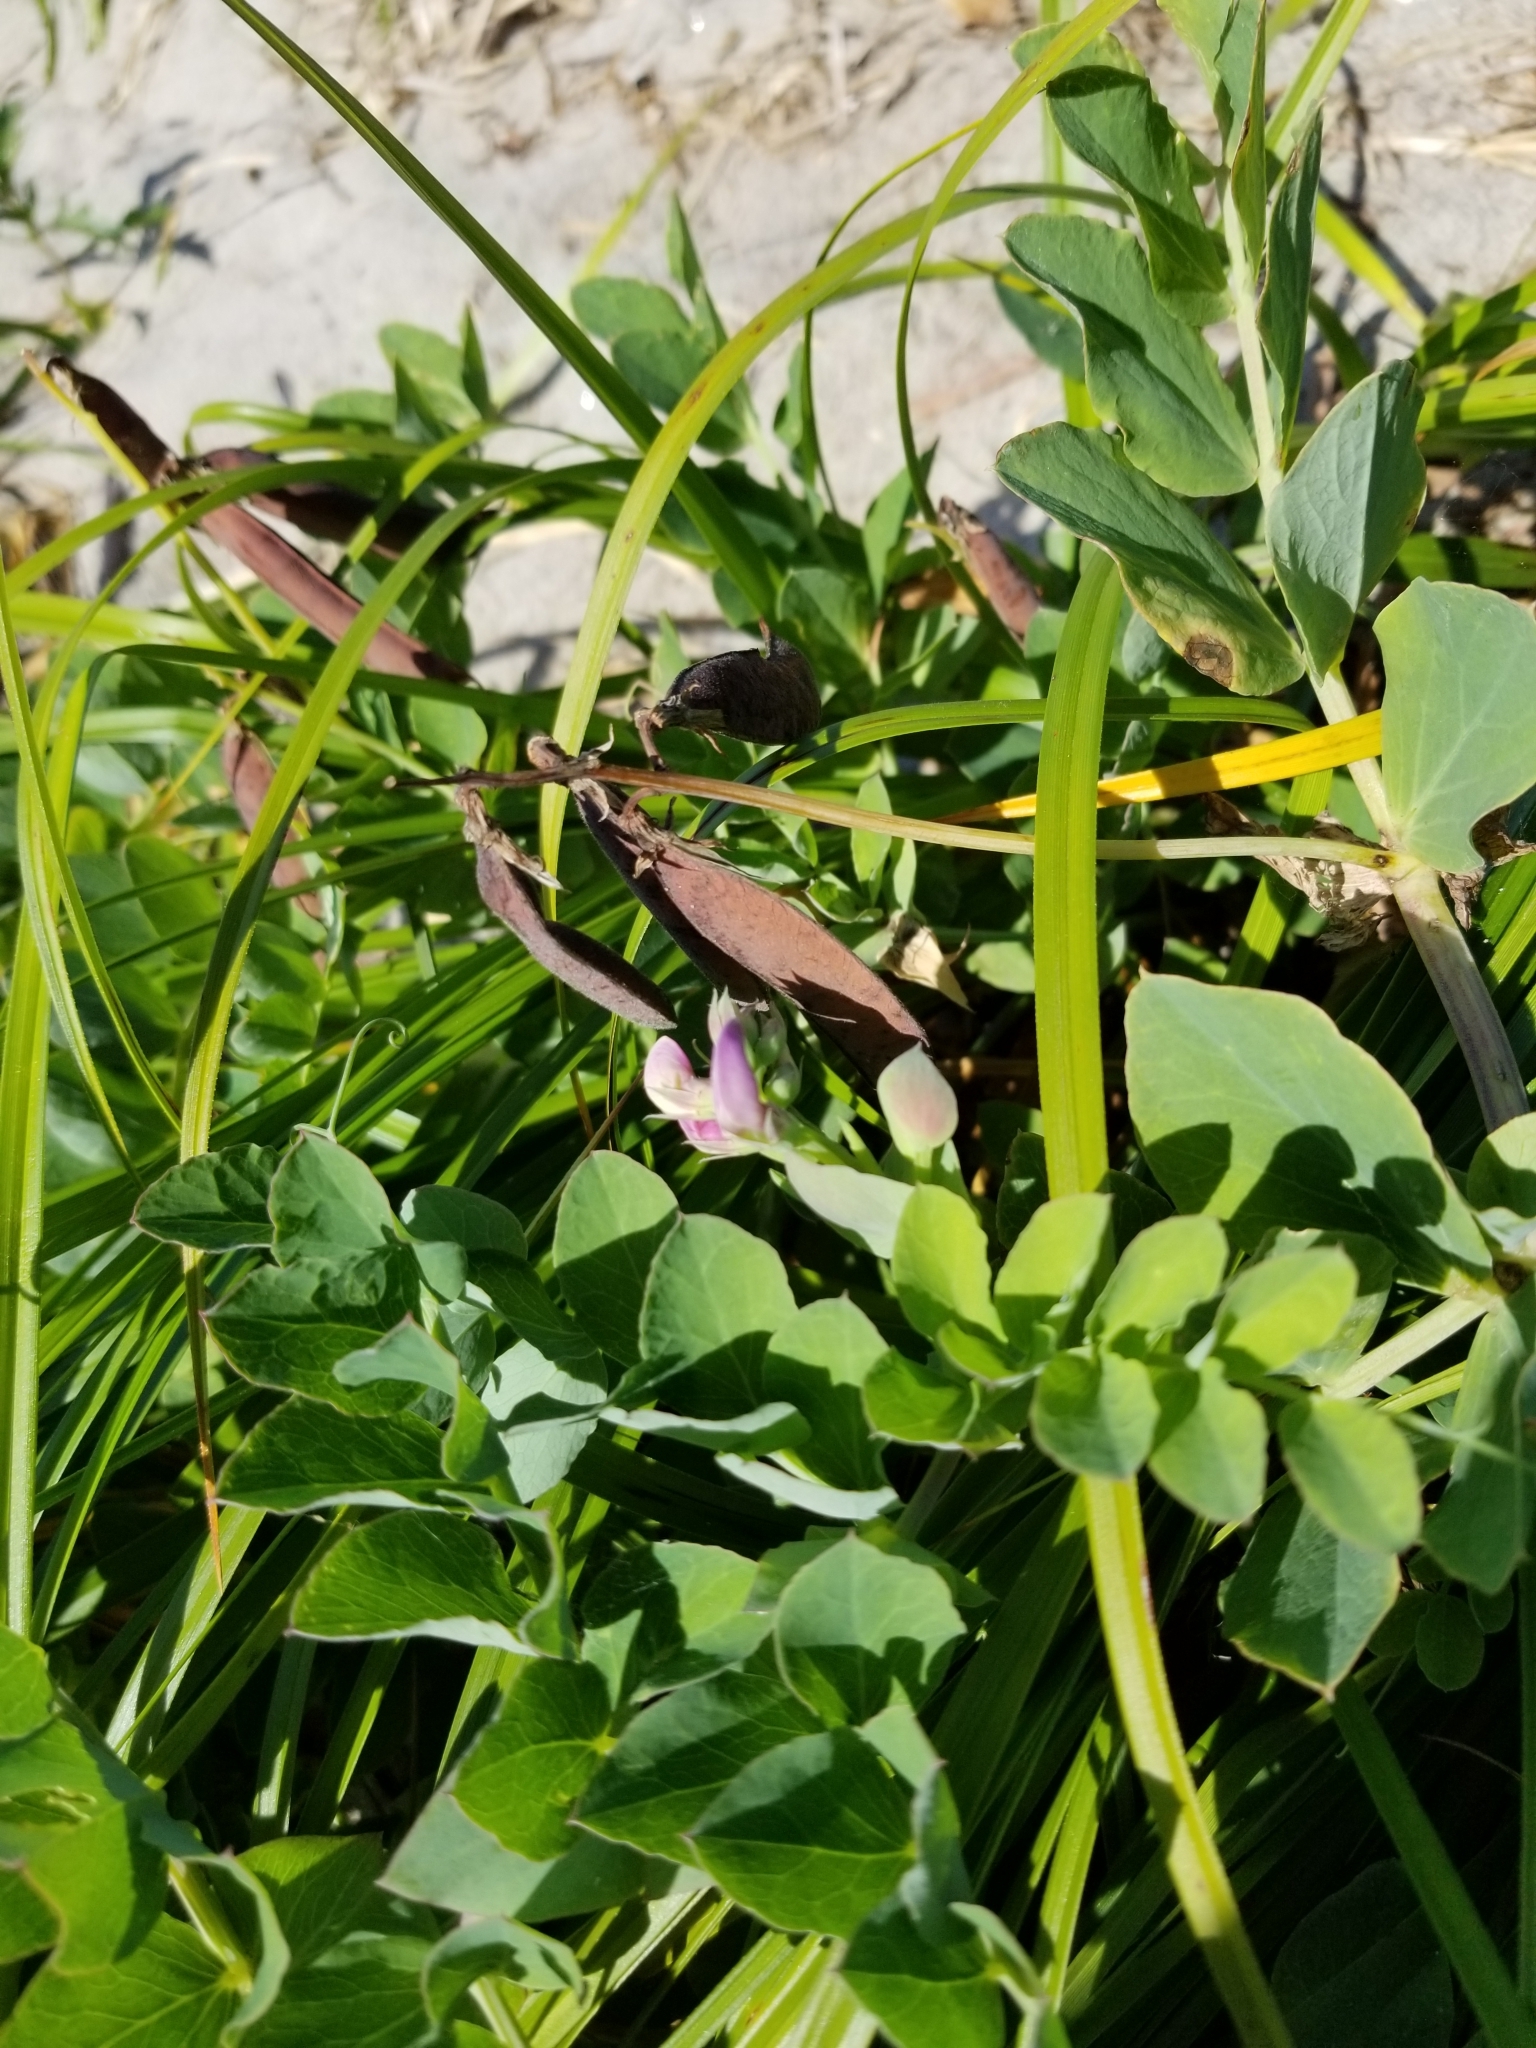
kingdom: Plantae
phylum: Tracheophyta
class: Magnoliopsida
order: Fabales
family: Fabaceae
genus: Lathyrus
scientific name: Lathyrus japonicus
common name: Sea pea
